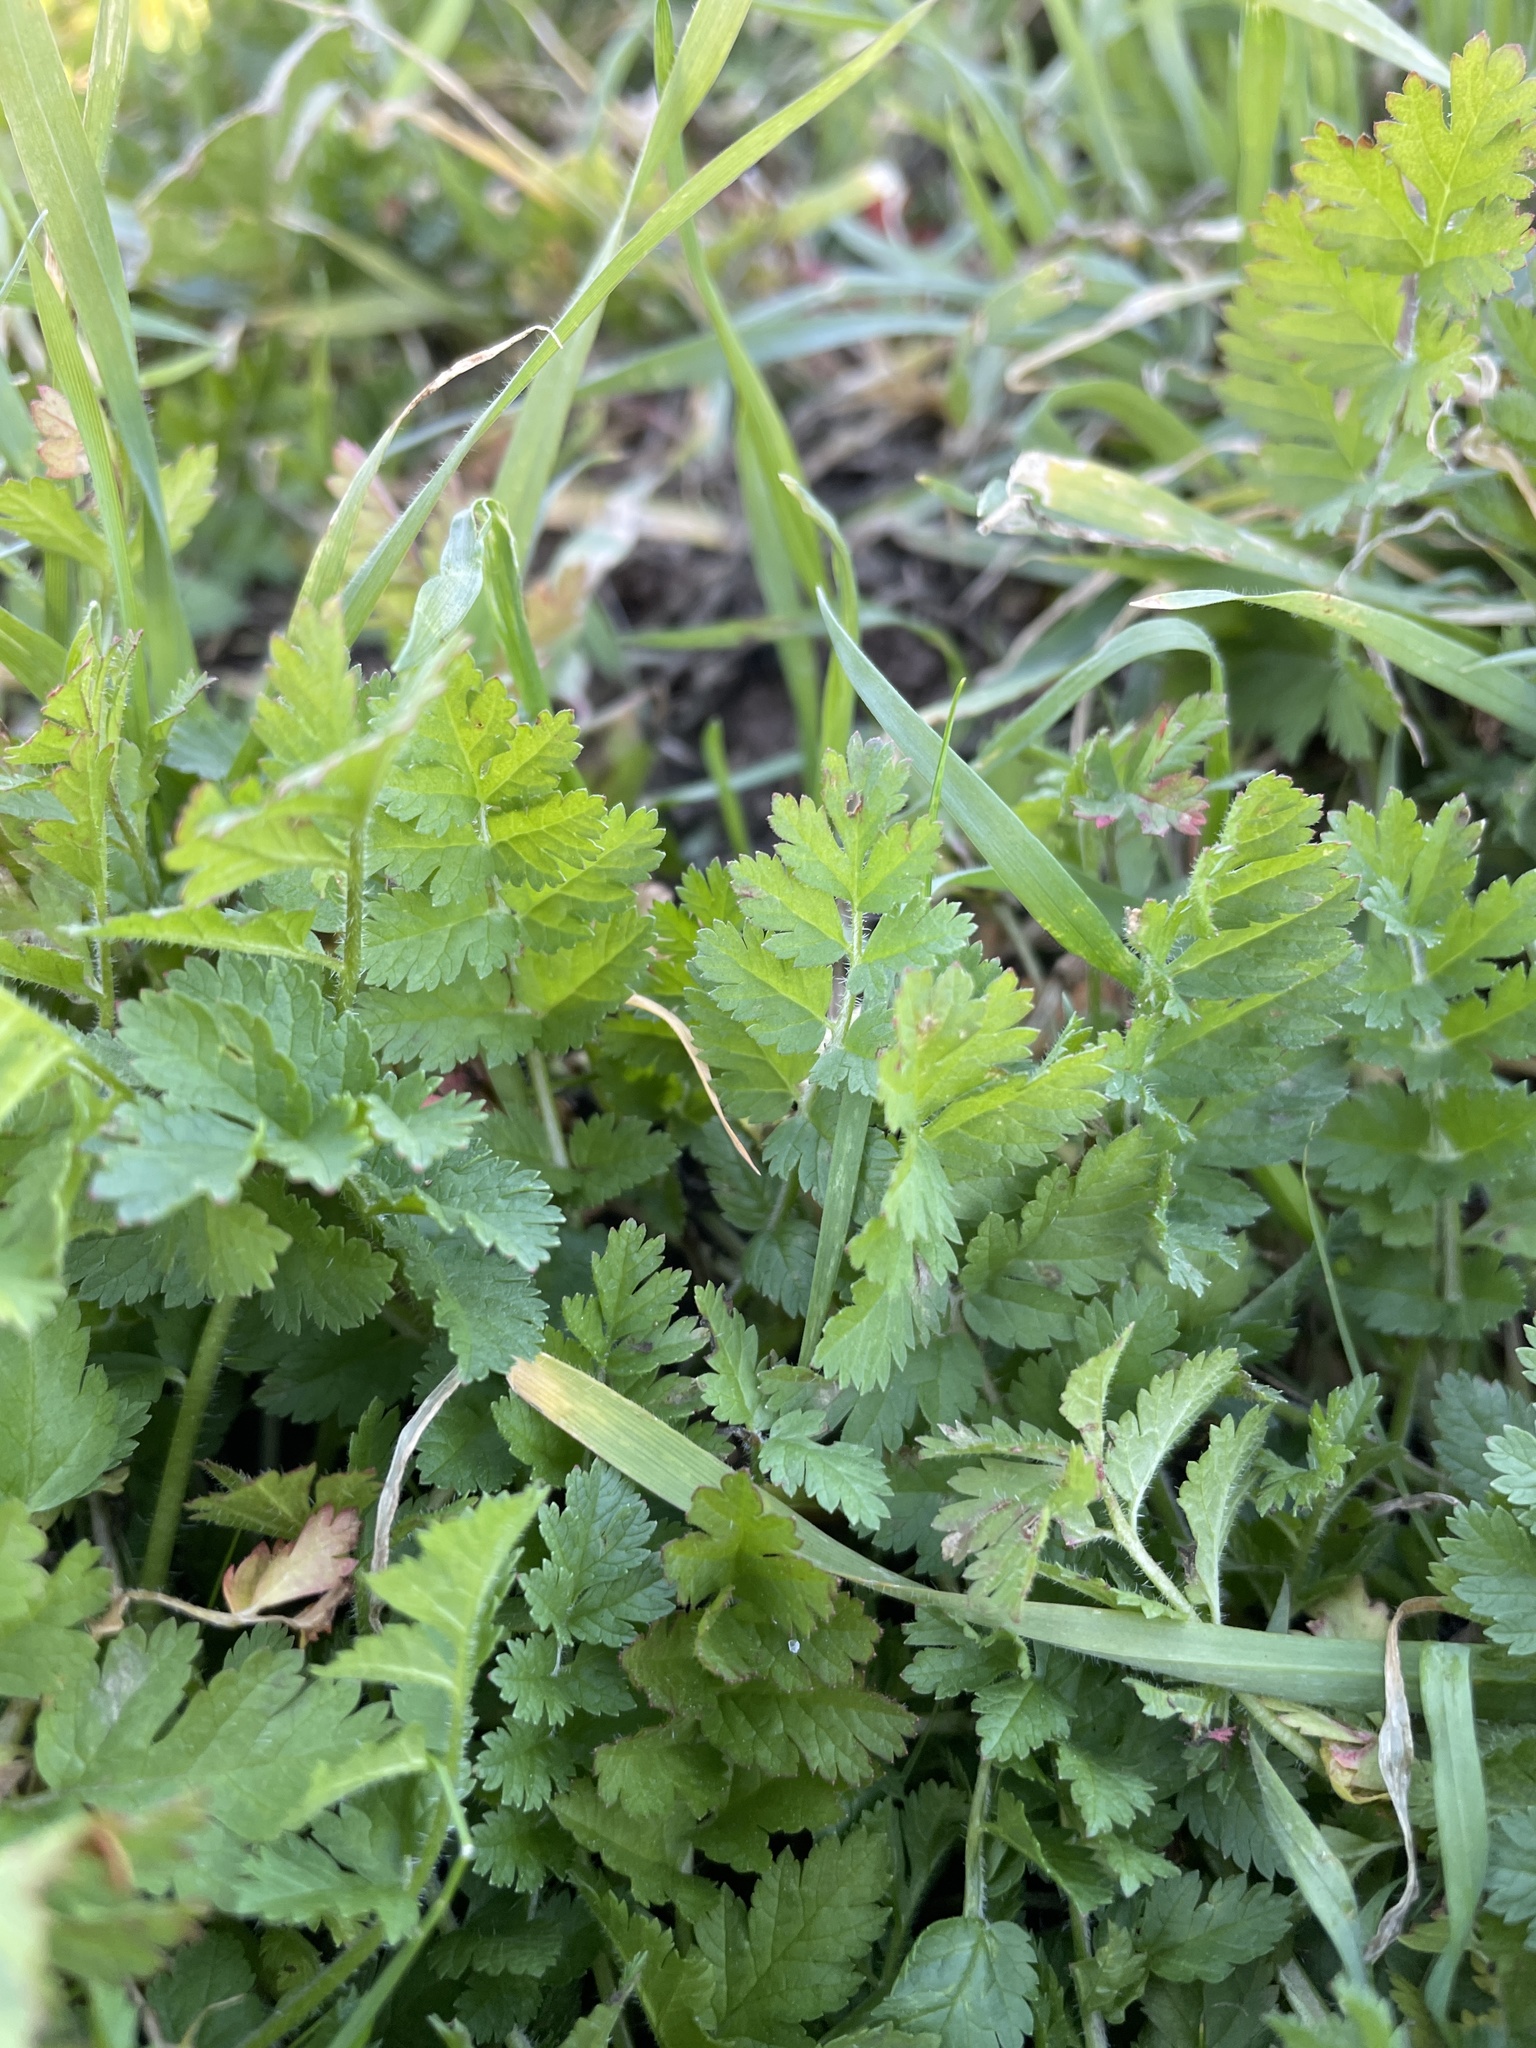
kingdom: Plantae
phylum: Tracheophyta
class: Magnoliopsida
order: Geraniales
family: Geraniaceae
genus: Erodium
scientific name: Erodium moschatum
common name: Musk stork's-bill
